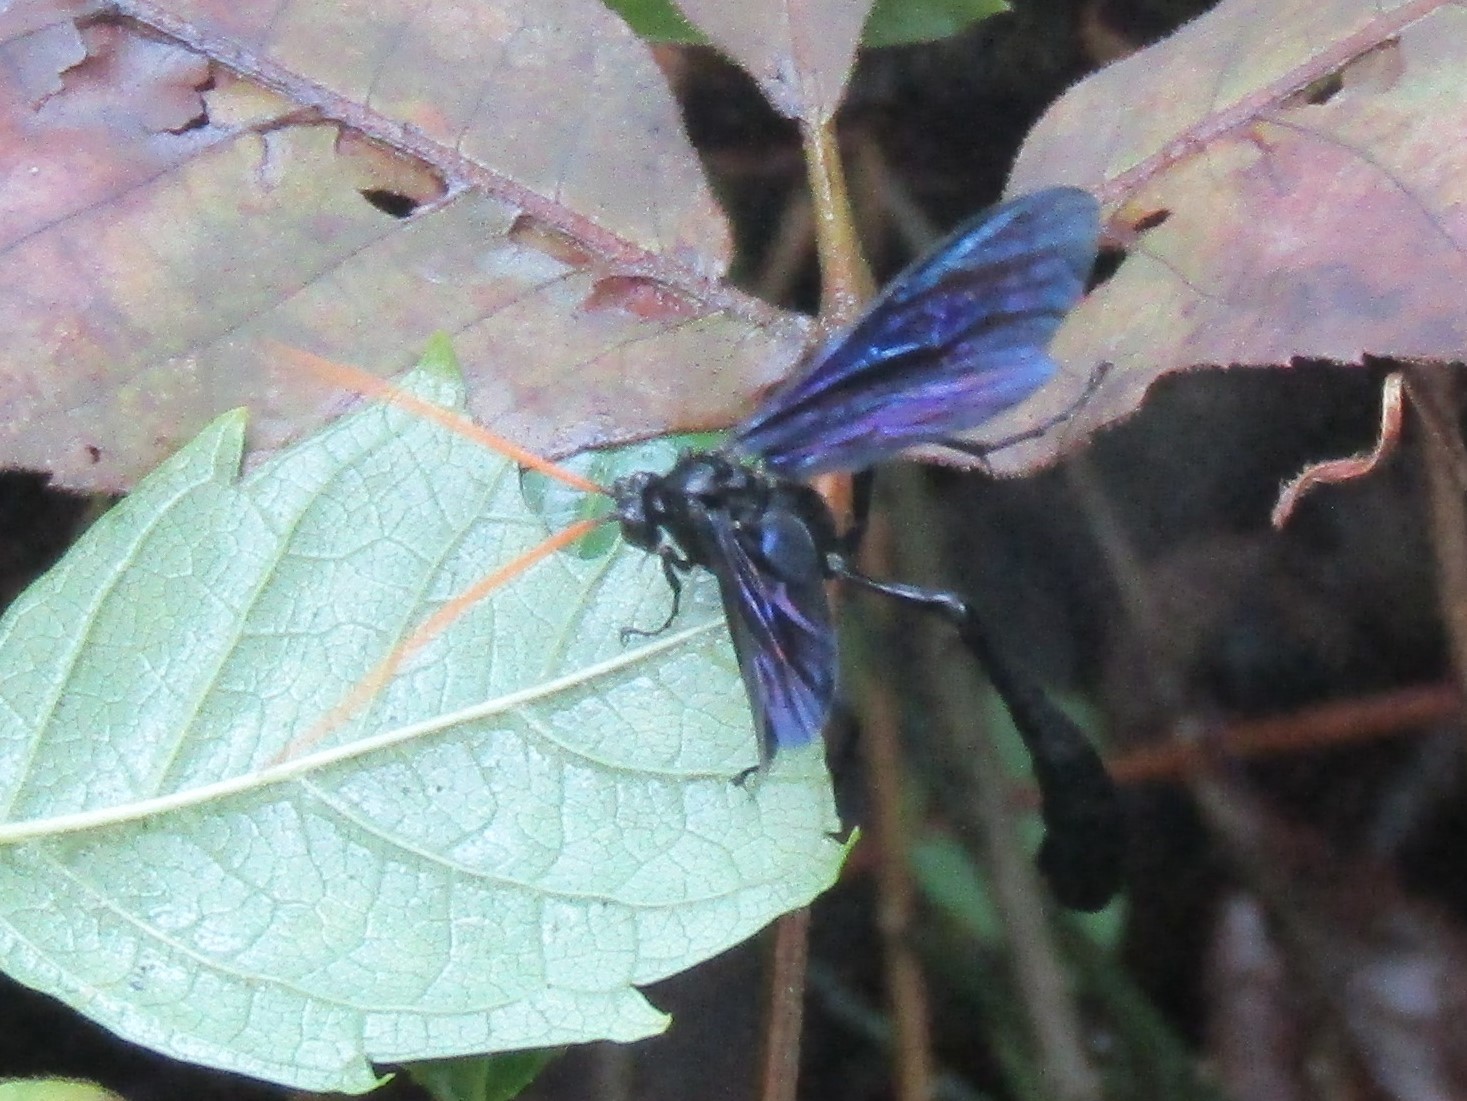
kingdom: Animalia
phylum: Arthropoda
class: Insecta
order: Hymenoptera
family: Ichneumonidae
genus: Thyreodon
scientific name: Thyreodon atricolor
